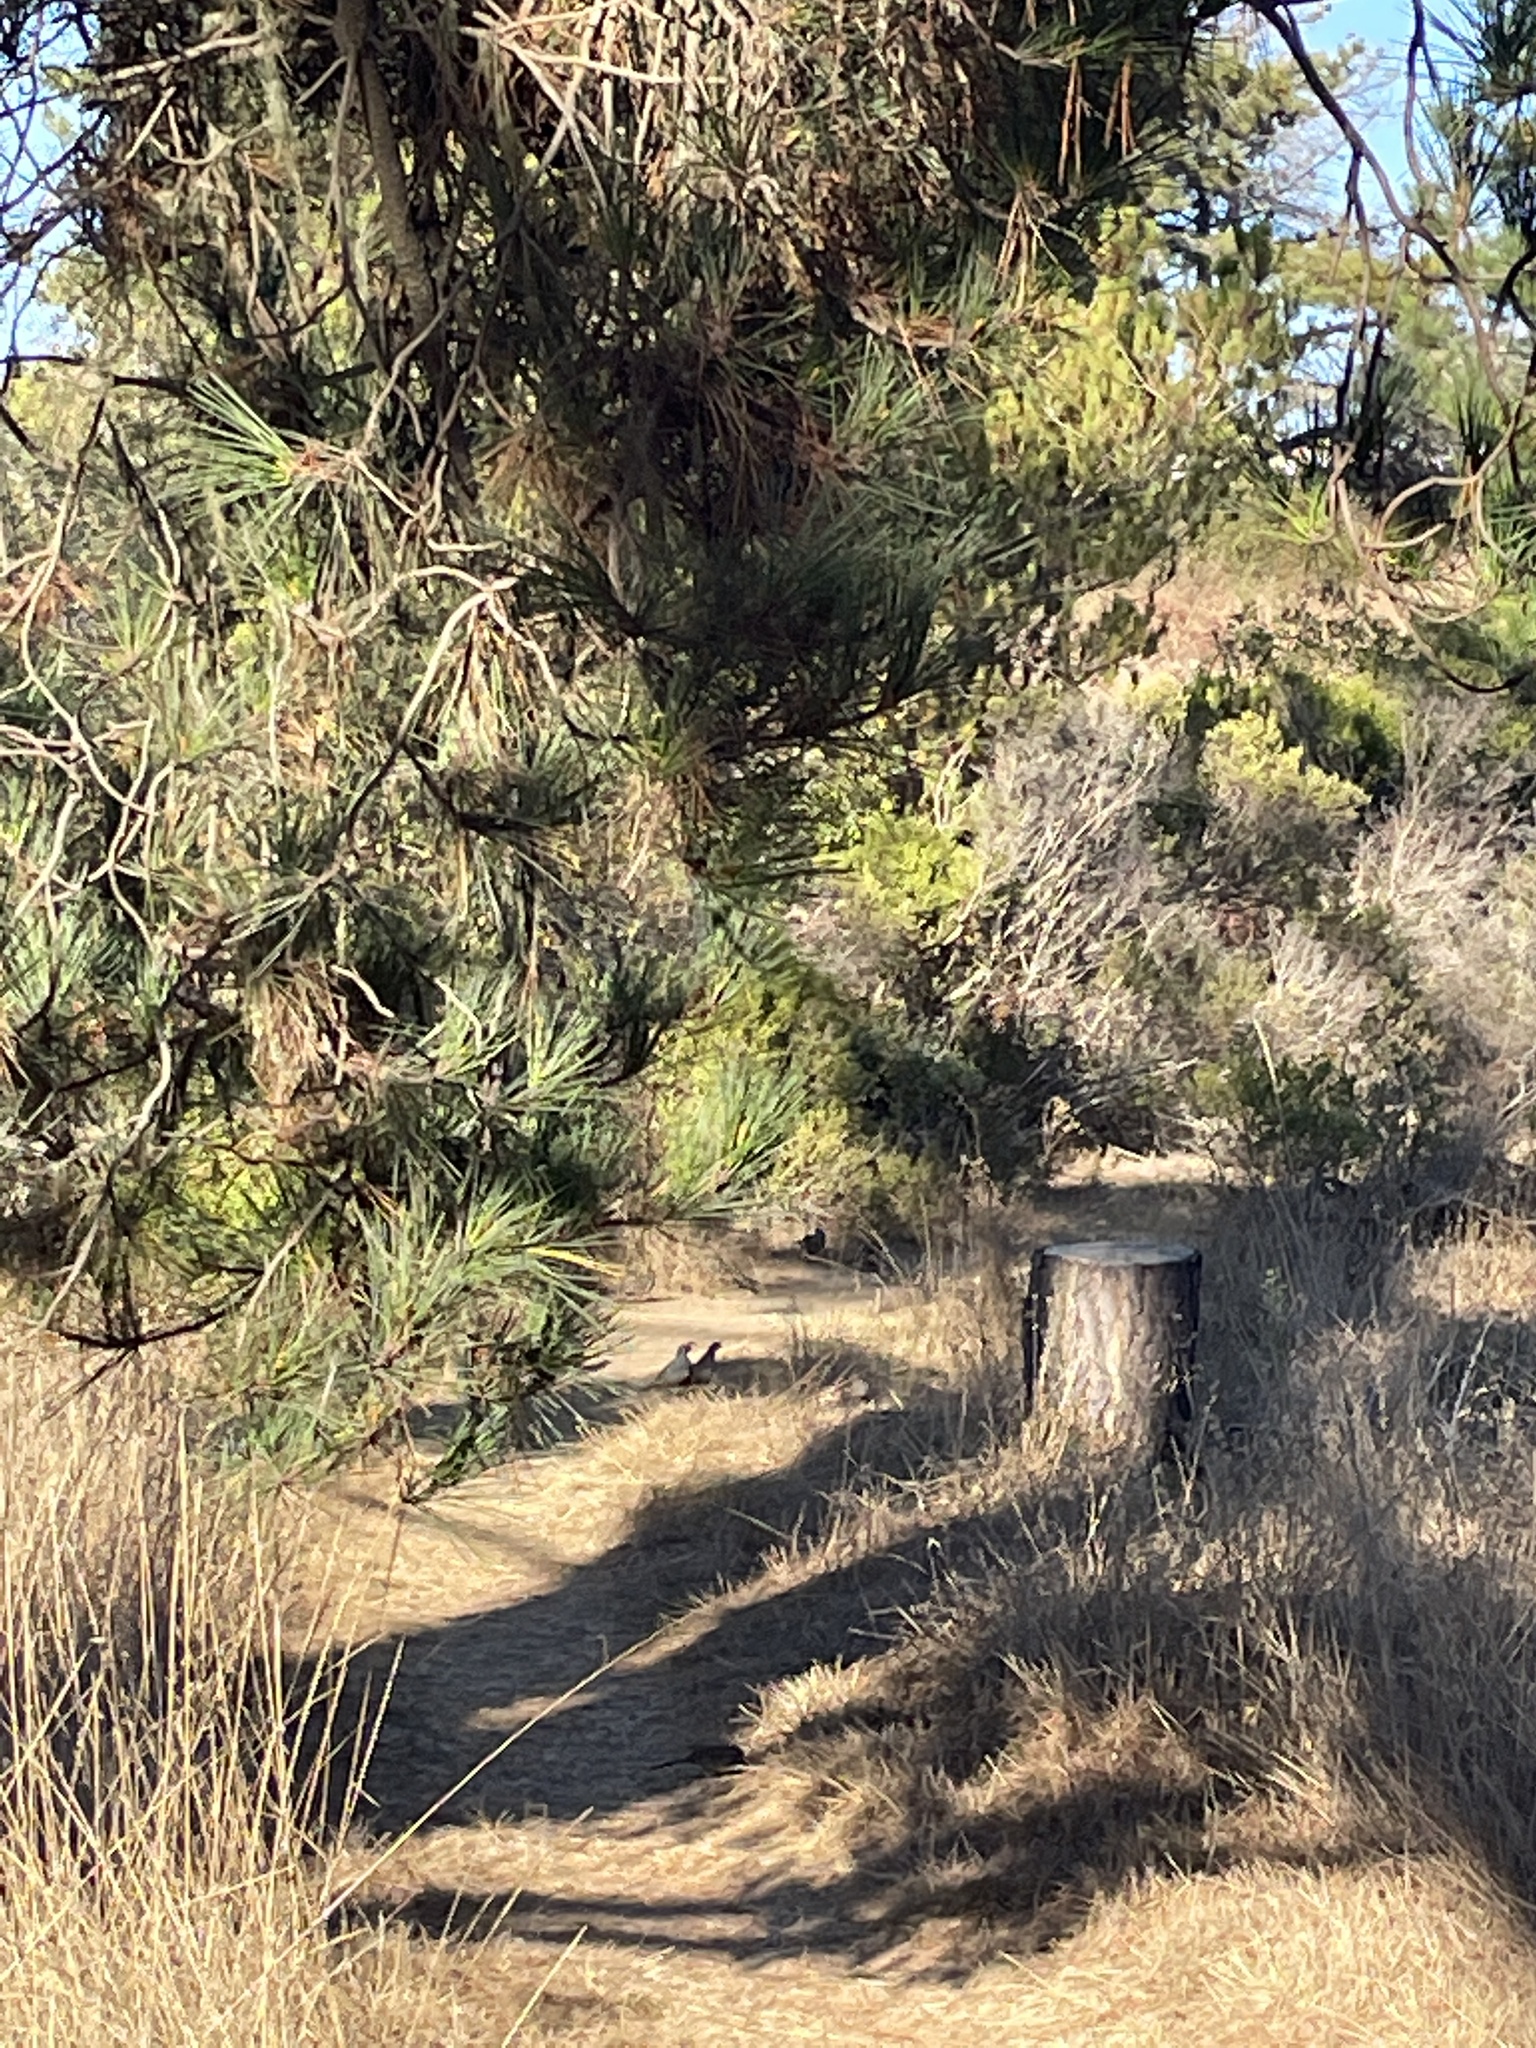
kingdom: Animalia
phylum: Chordata
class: Aves
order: Galliformes
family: Odontophoridae
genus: Callipepla
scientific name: Callipepla californica
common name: California quail
